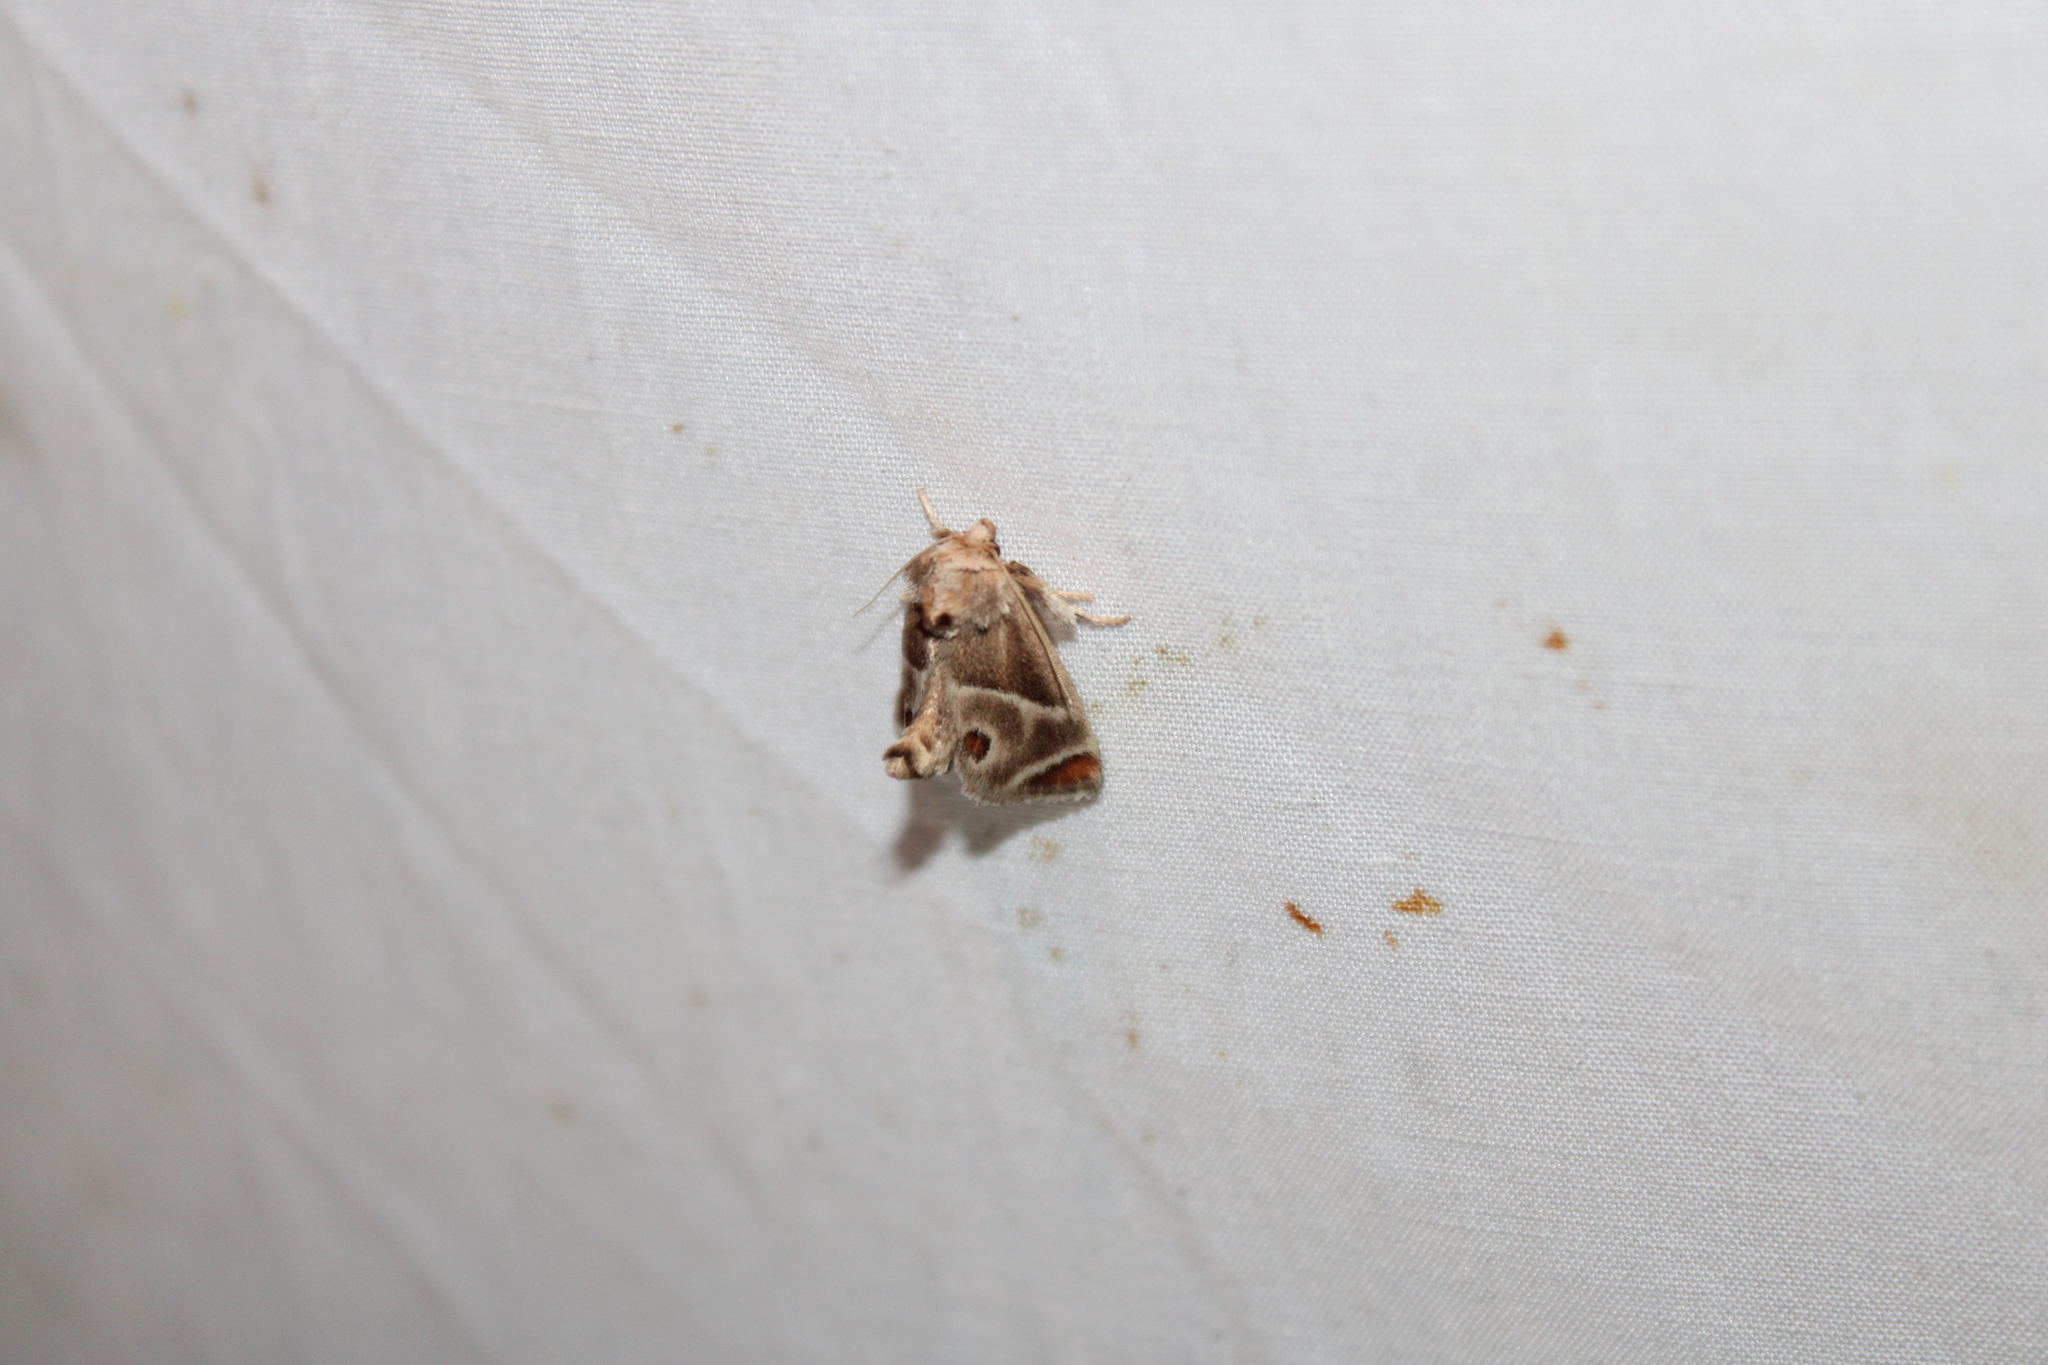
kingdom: Animalia
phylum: Arthropoda
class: Insecta
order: Lepidoptera
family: Limacodidae
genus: Apoda
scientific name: Apoda biguttata
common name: Shagreened slug moth
